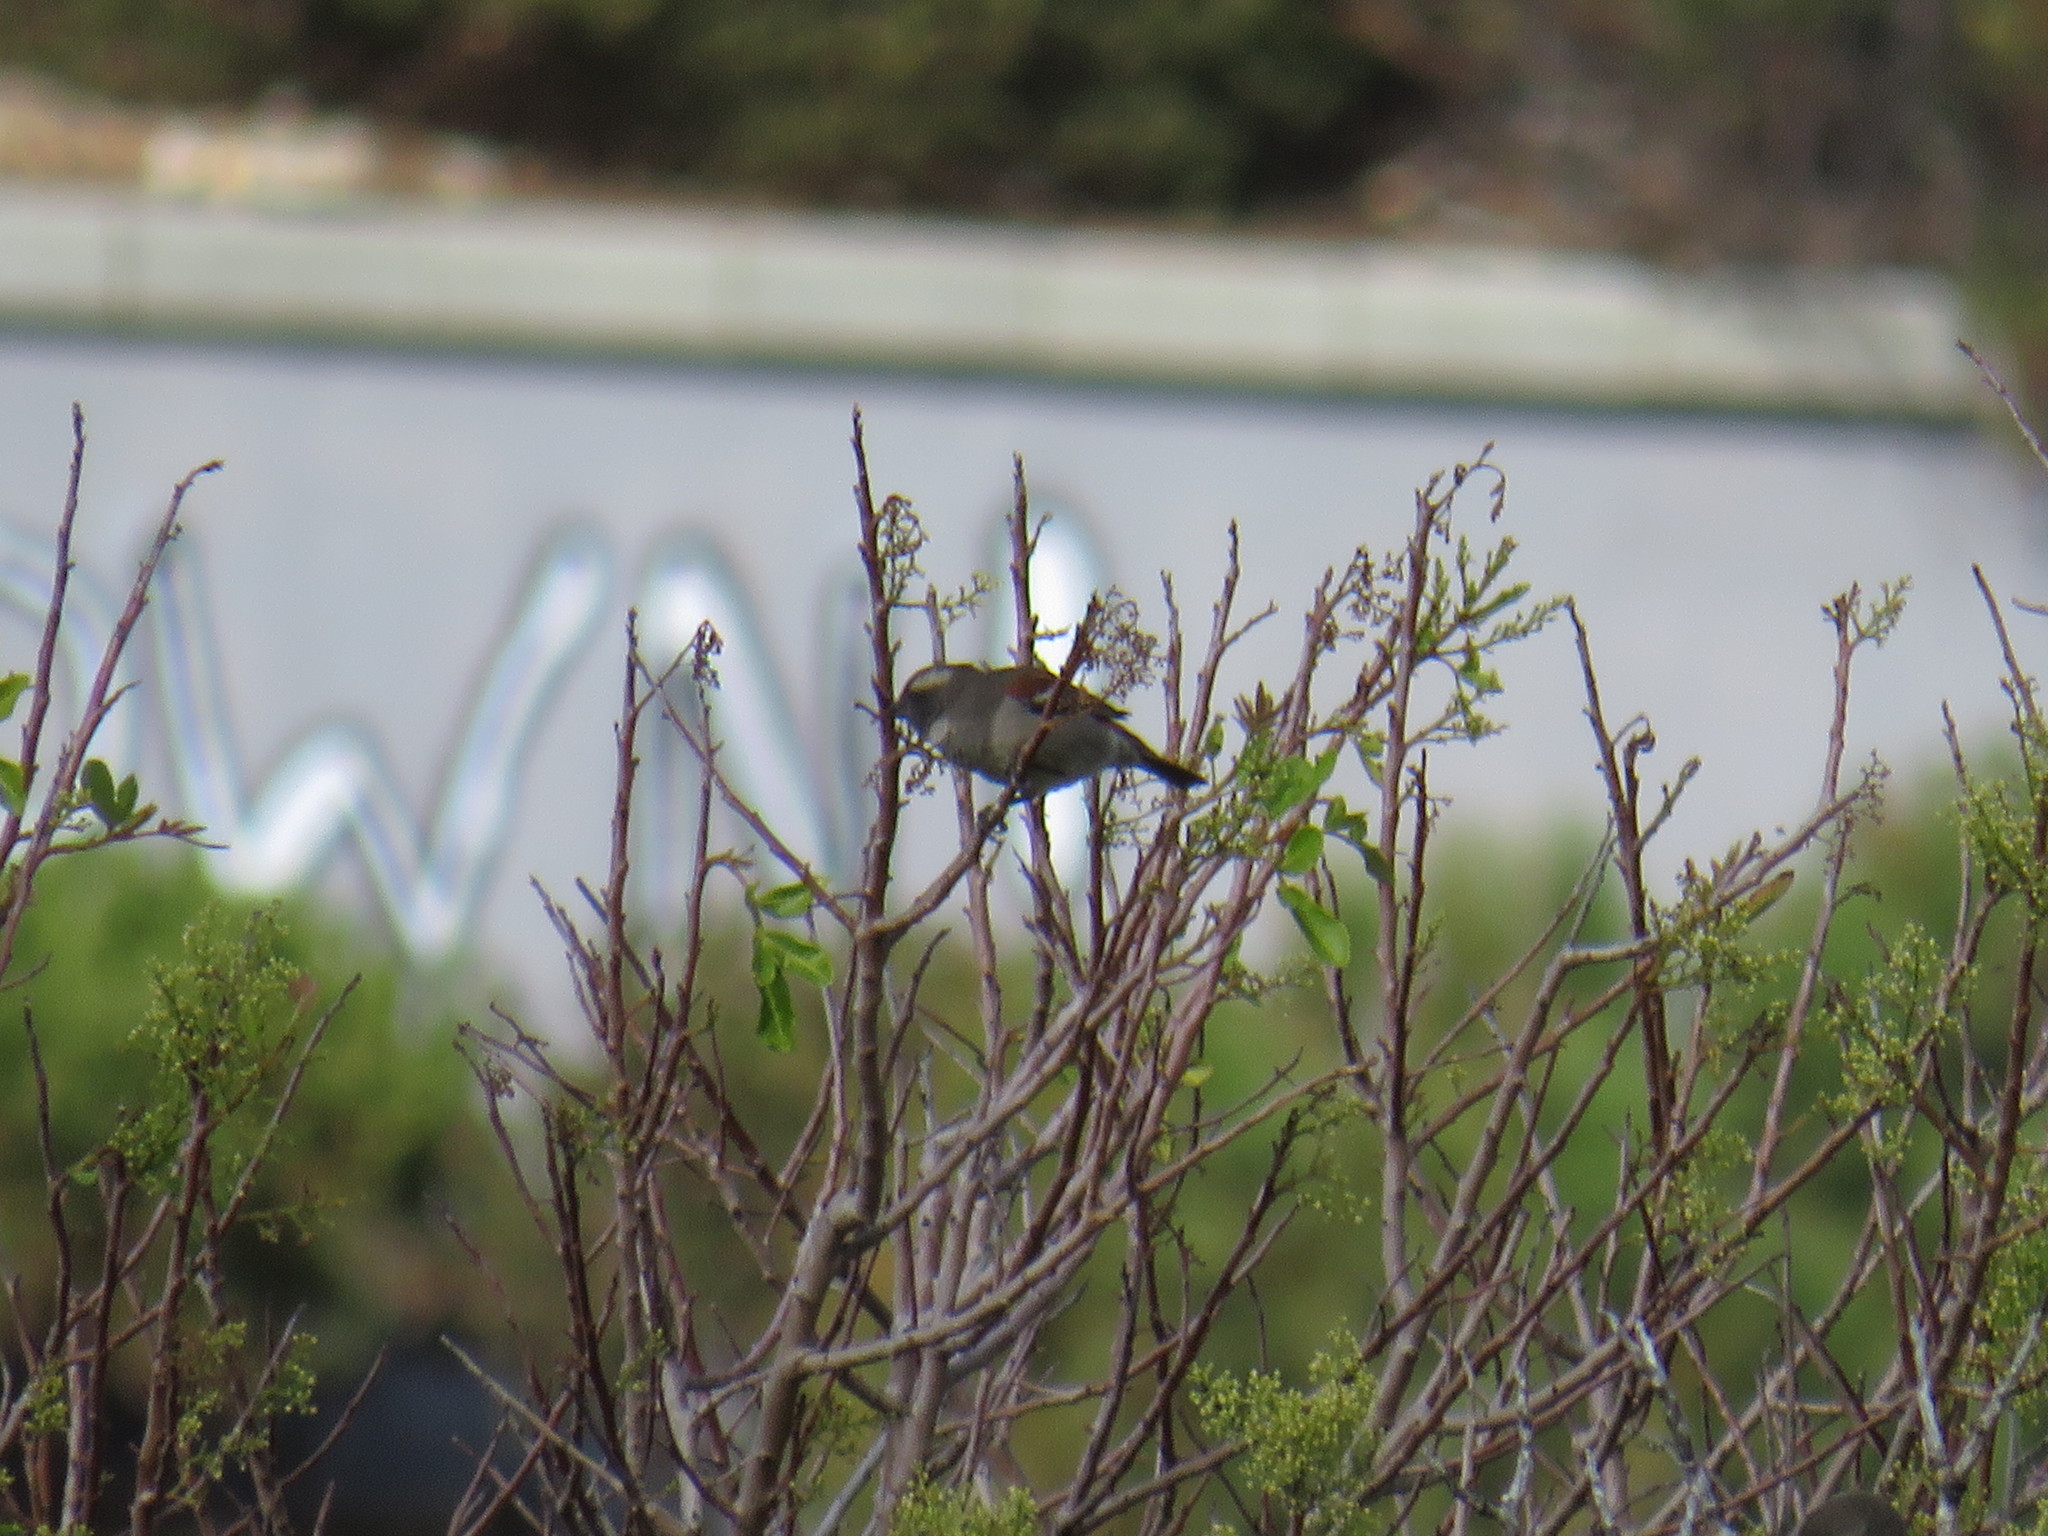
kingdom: Animalia
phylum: Chordata
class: Aves
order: Passeriformes
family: Passeridae
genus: Passer
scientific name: Passer melanurus
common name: Cape sparrow
